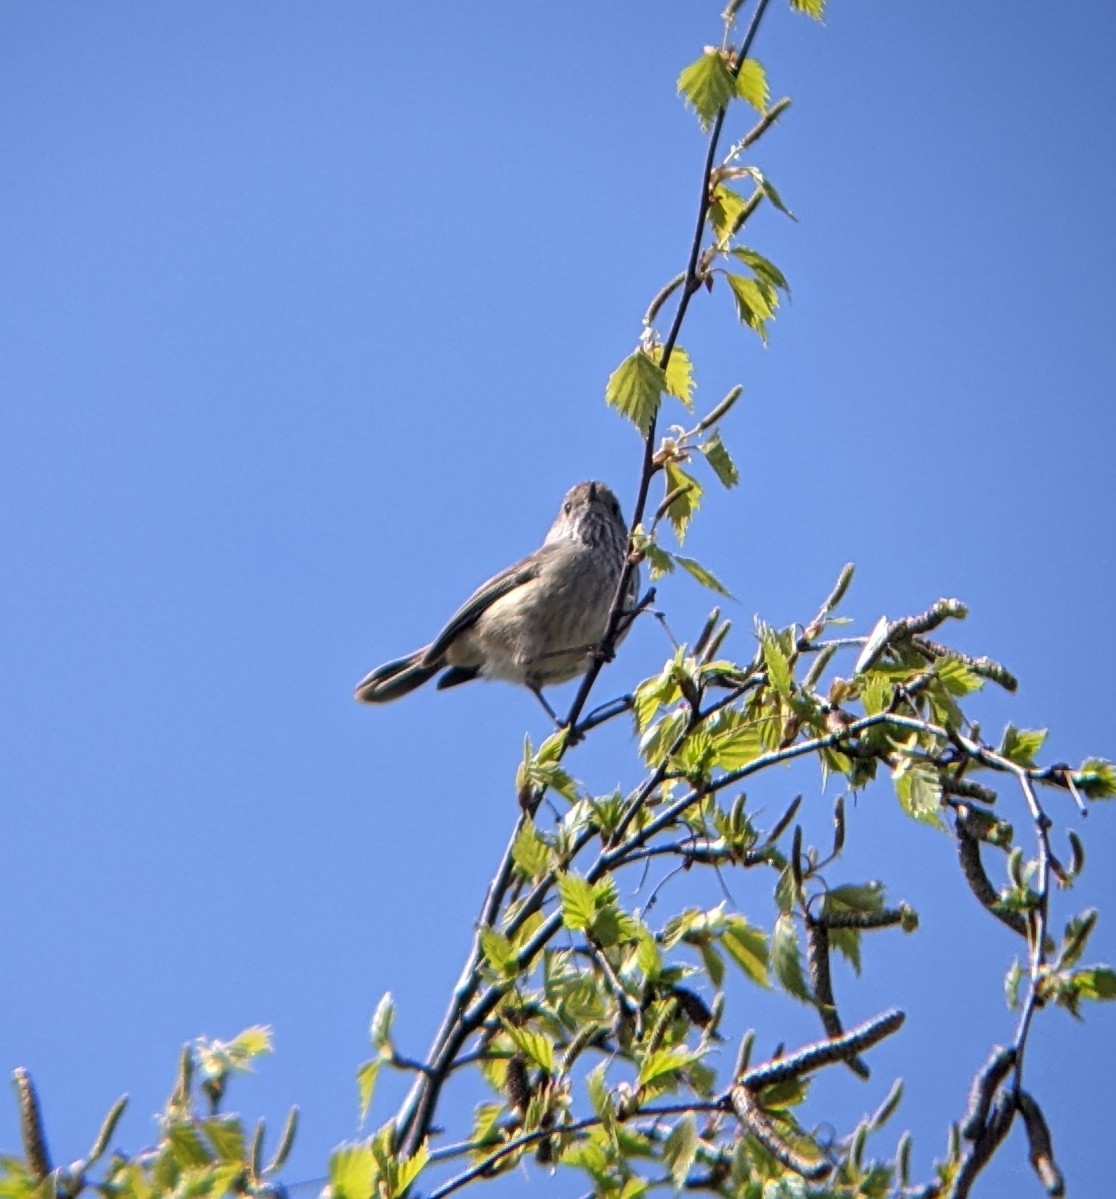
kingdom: Animalia
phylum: Chordata
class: Aves
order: Passeriformes
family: Acanthizidae
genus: Acanthiza
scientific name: Acanthiza pusilla
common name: Brown thornbill
